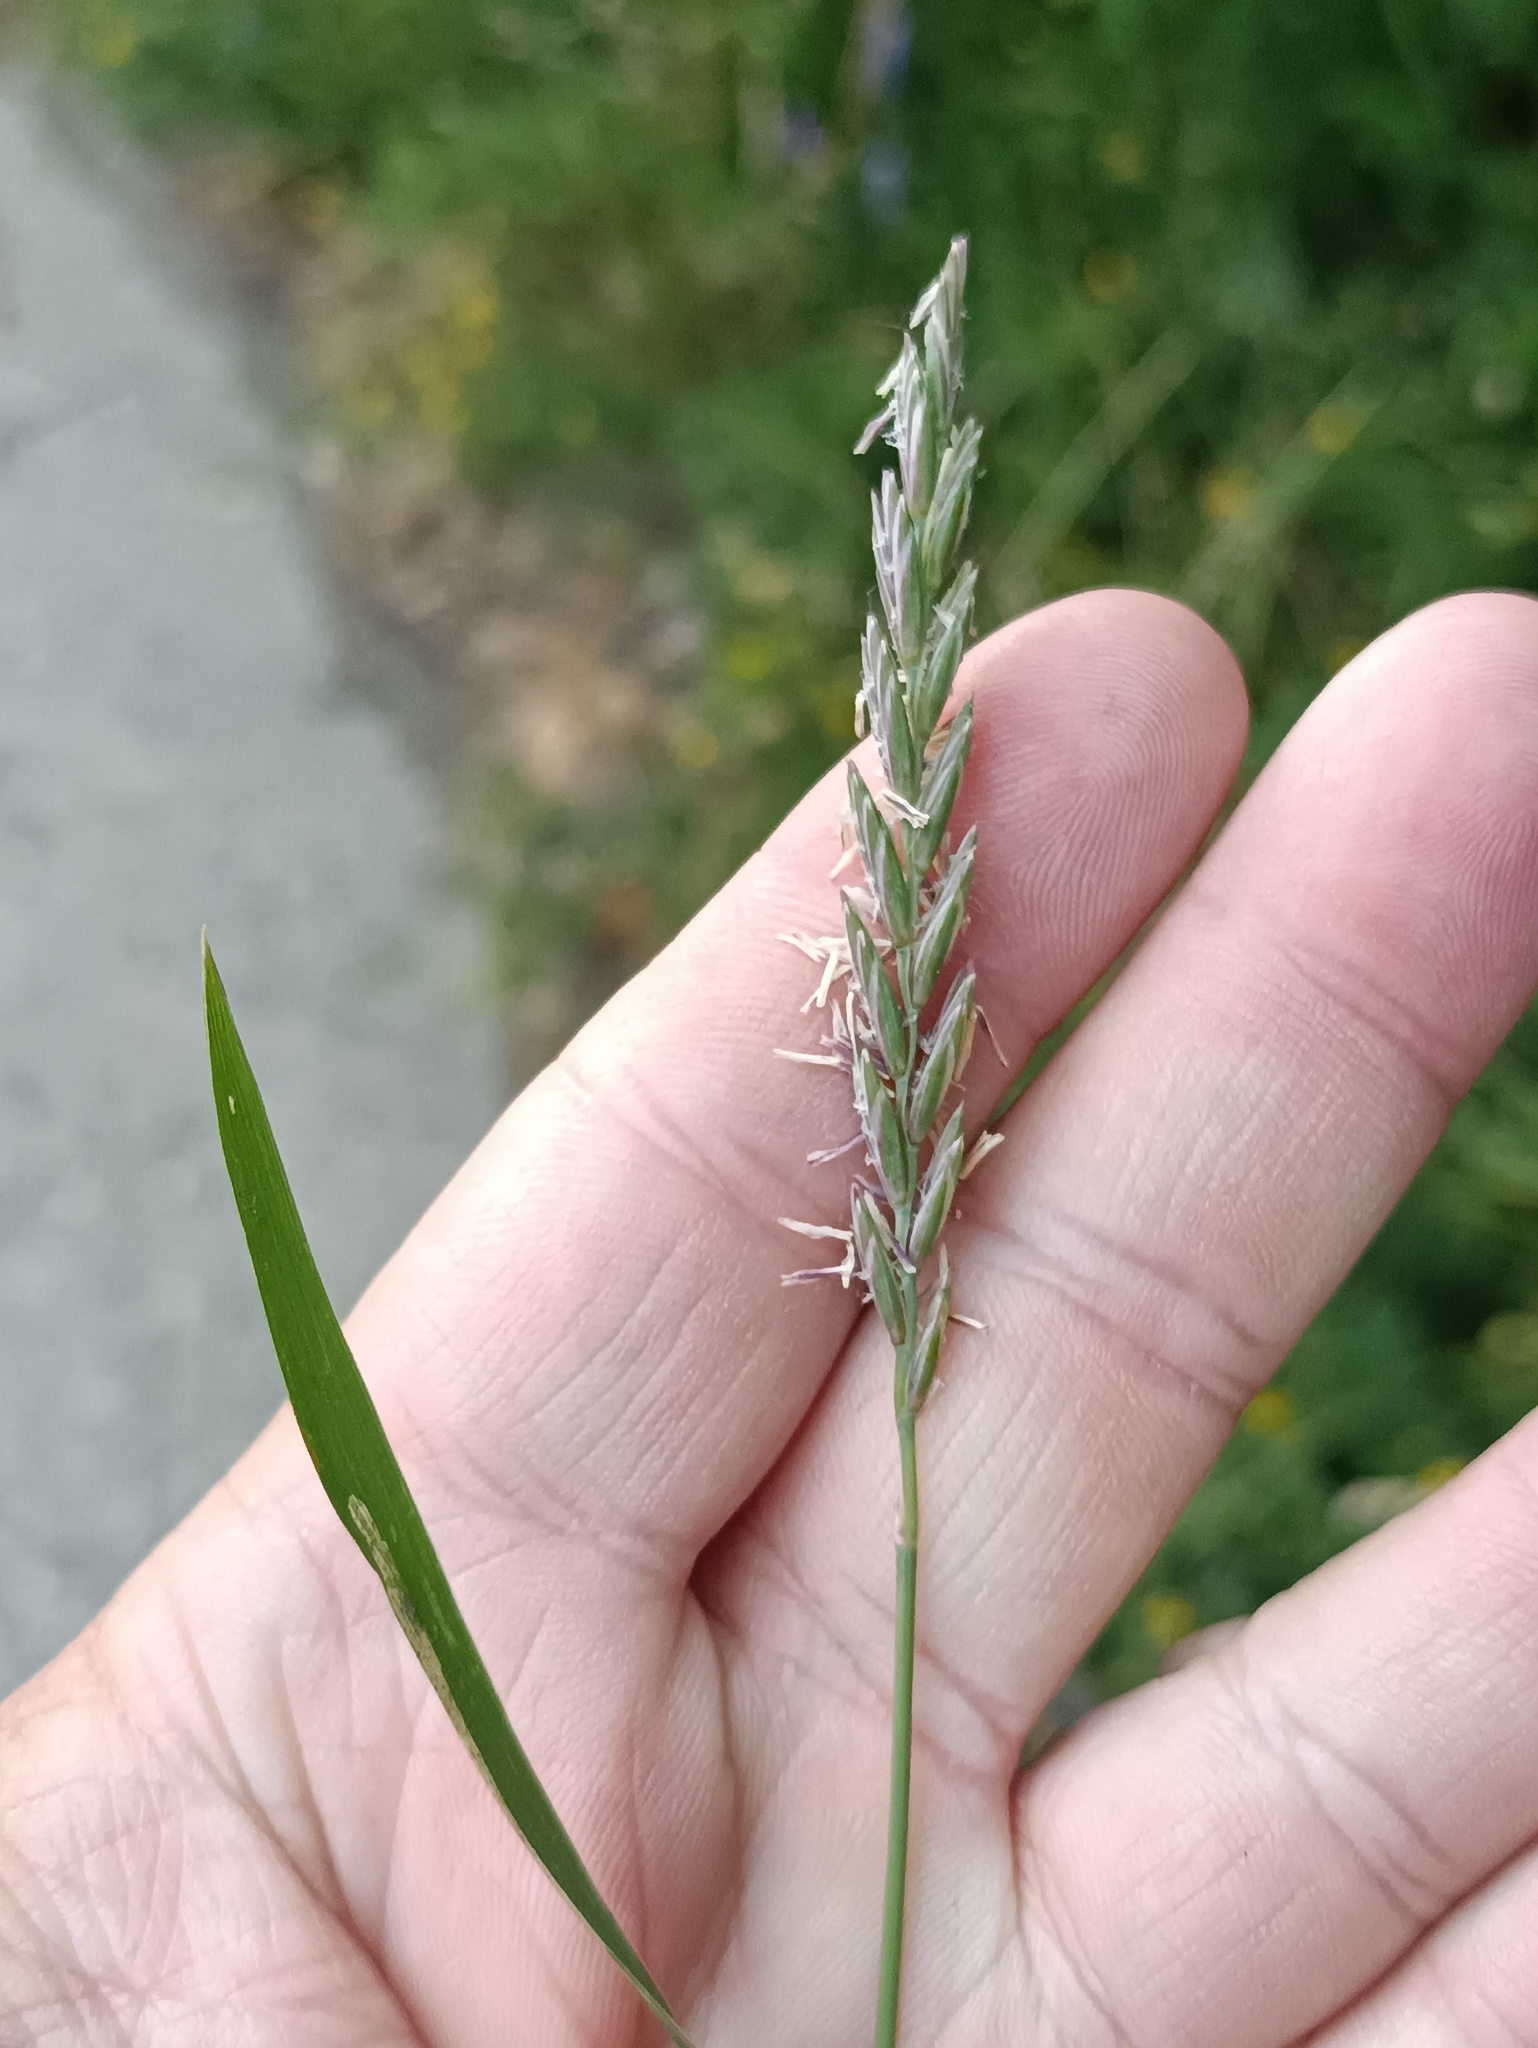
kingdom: Plantae
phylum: Tracheophyta
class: Liliopsida
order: Poales
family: Poaceae
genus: Elymus
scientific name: Elymus repens
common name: Quackgrass
